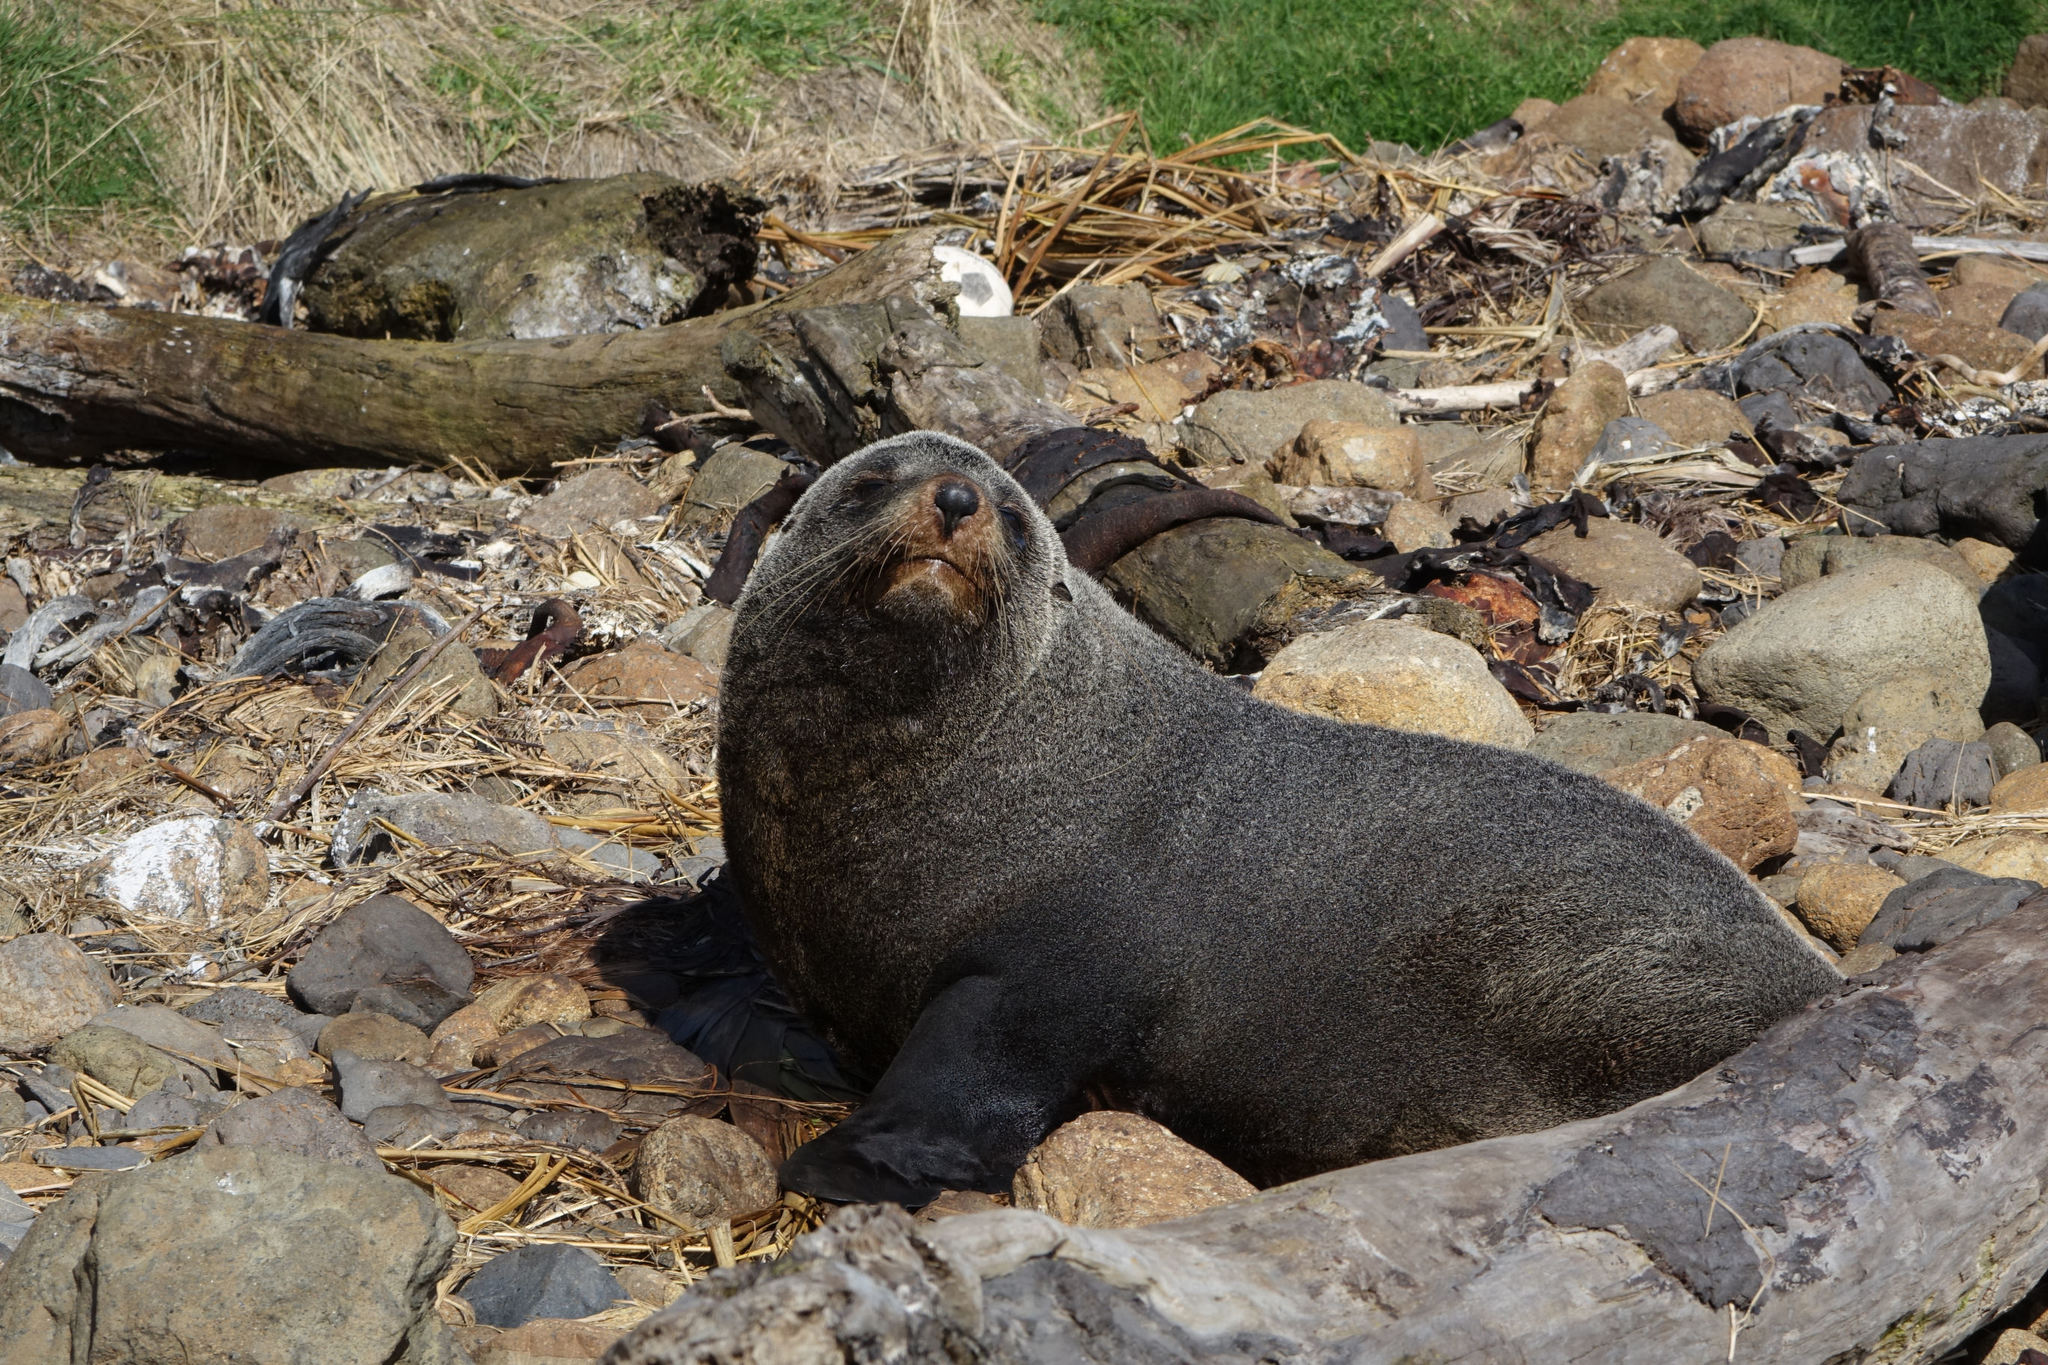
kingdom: Animalia
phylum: Chordata
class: Mammalia
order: Carnivora
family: Otariidae
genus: Arctocephalus
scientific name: Arctocephalus forsteri
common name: New zealand fur seal
